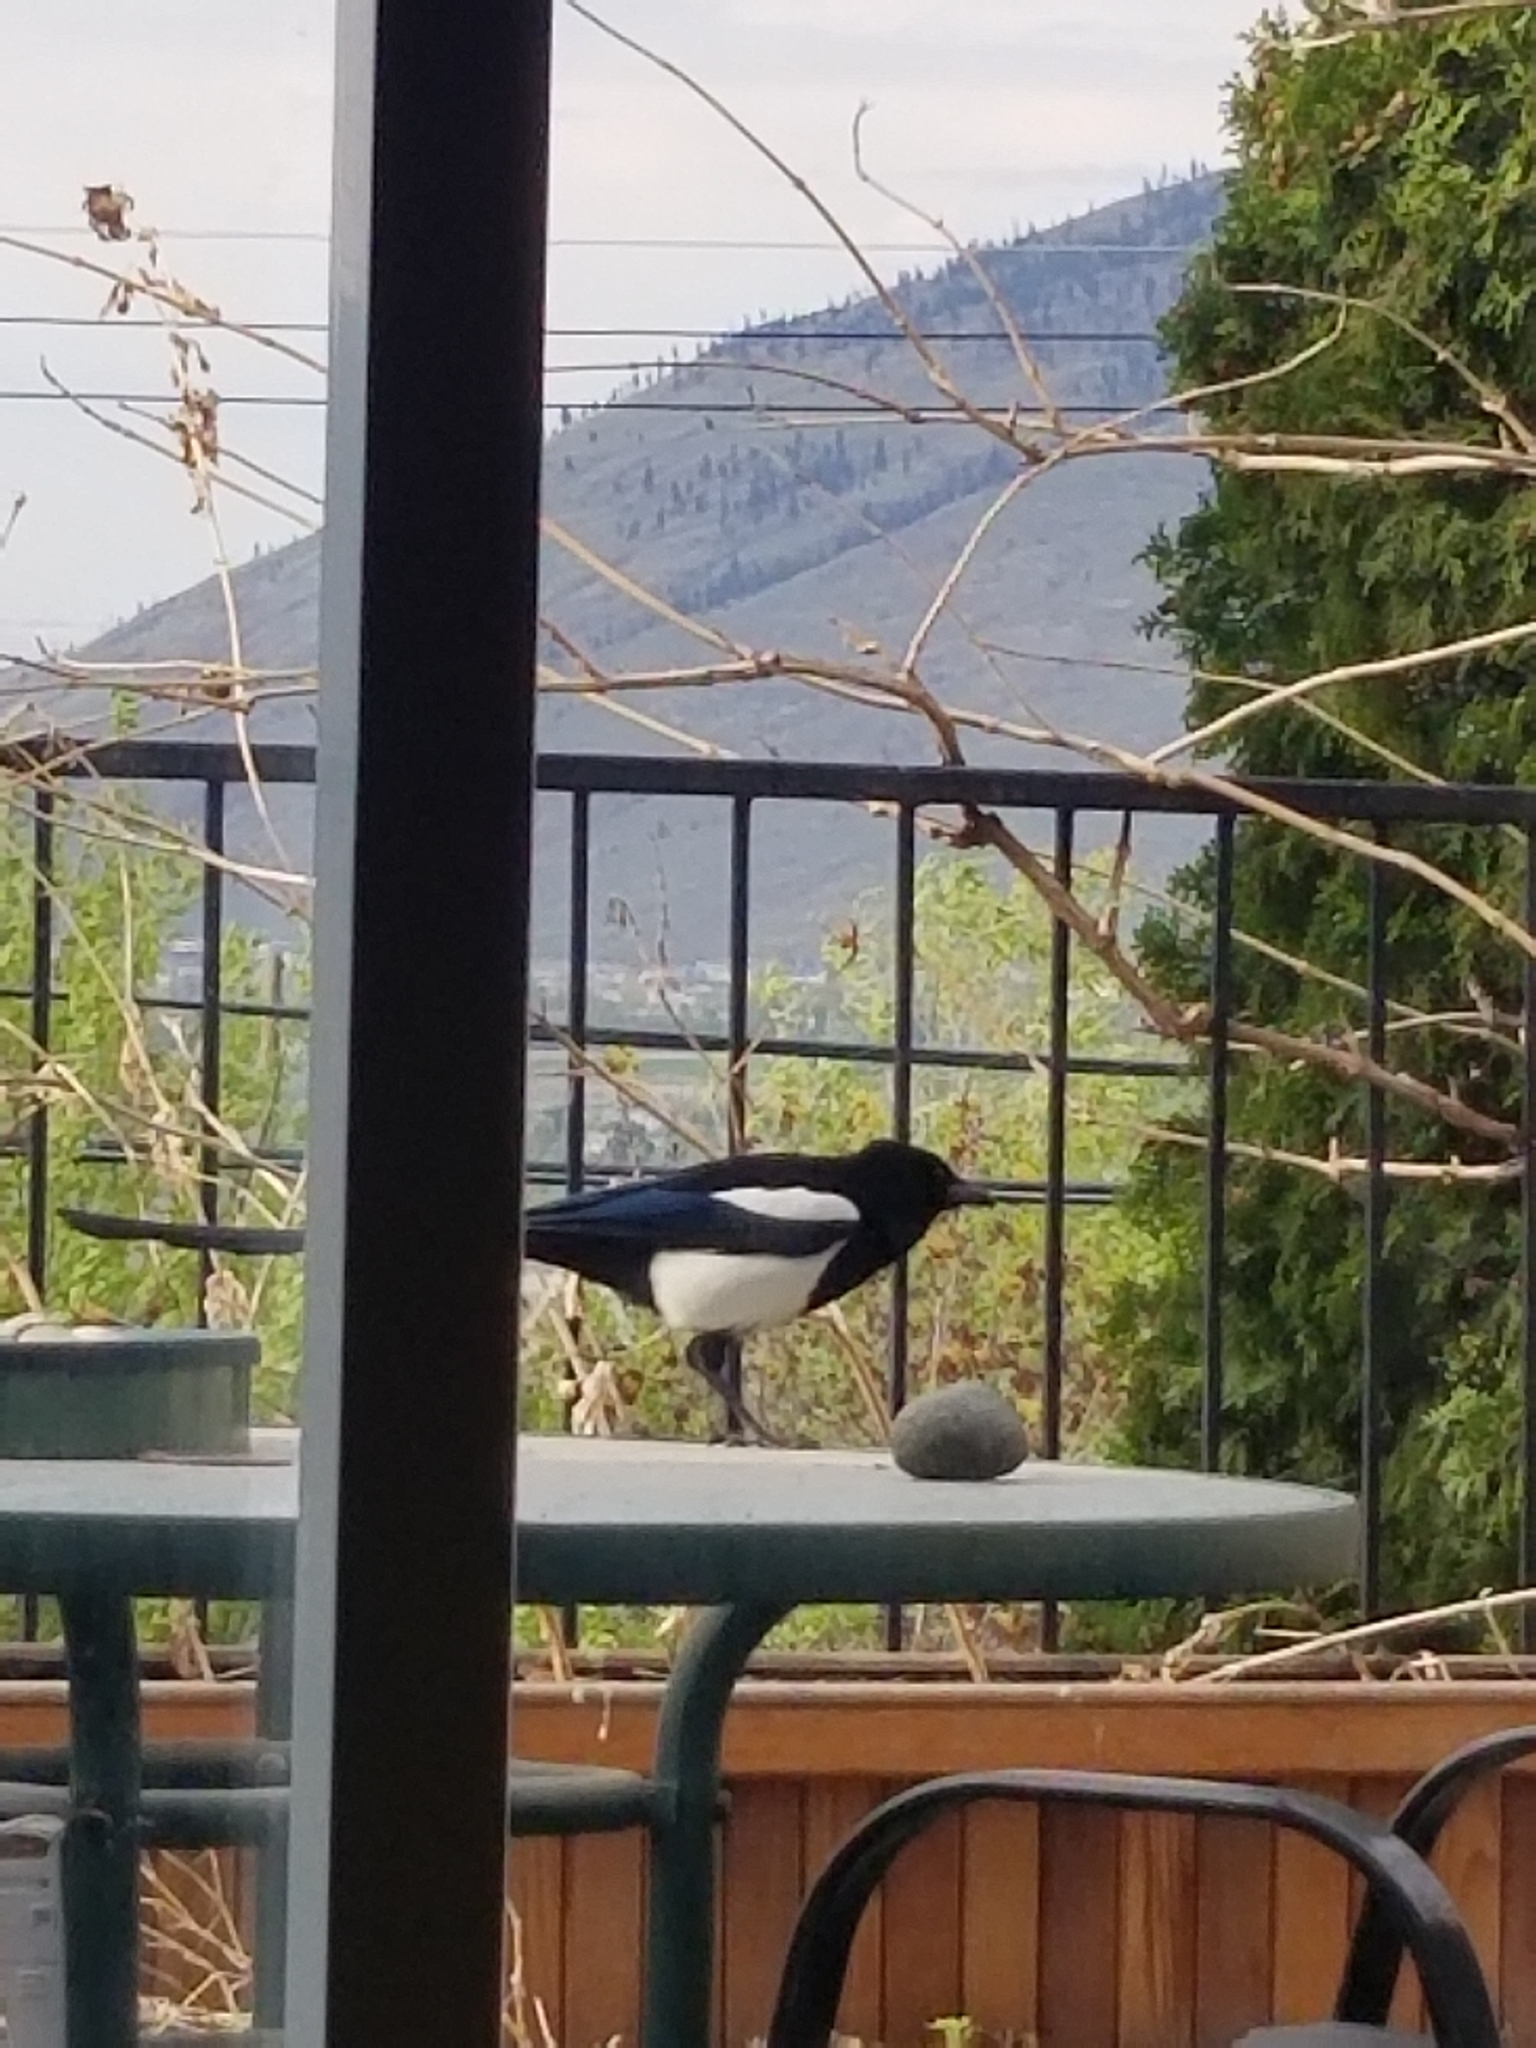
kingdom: Animalia
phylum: Chordata
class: Aves
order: Passeriformes
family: Corvidae
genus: Pica
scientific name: Pica hudsonia
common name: Black-billed magpie
